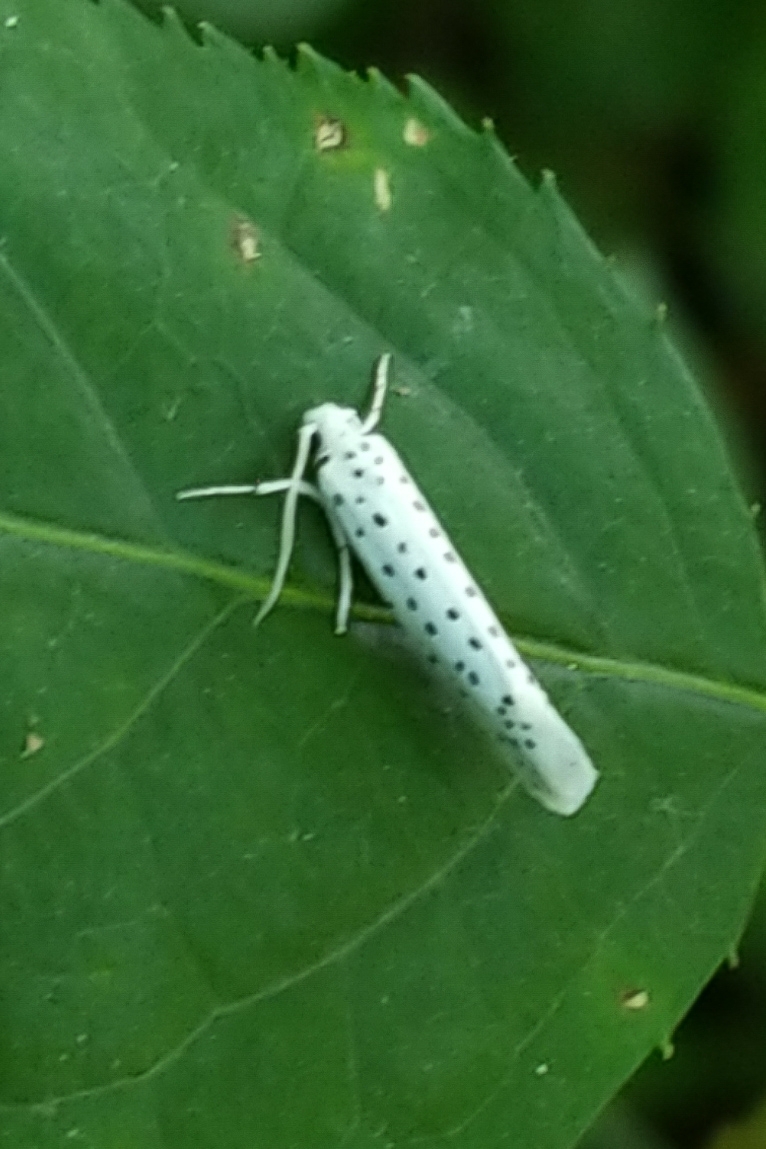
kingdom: Animalia
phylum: Arthropoda
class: Insecta
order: Lepidoptera
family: Yponomeutidae
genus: Yponomeuta
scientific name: Yponomeuta multipunctella
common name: American ermine moth
